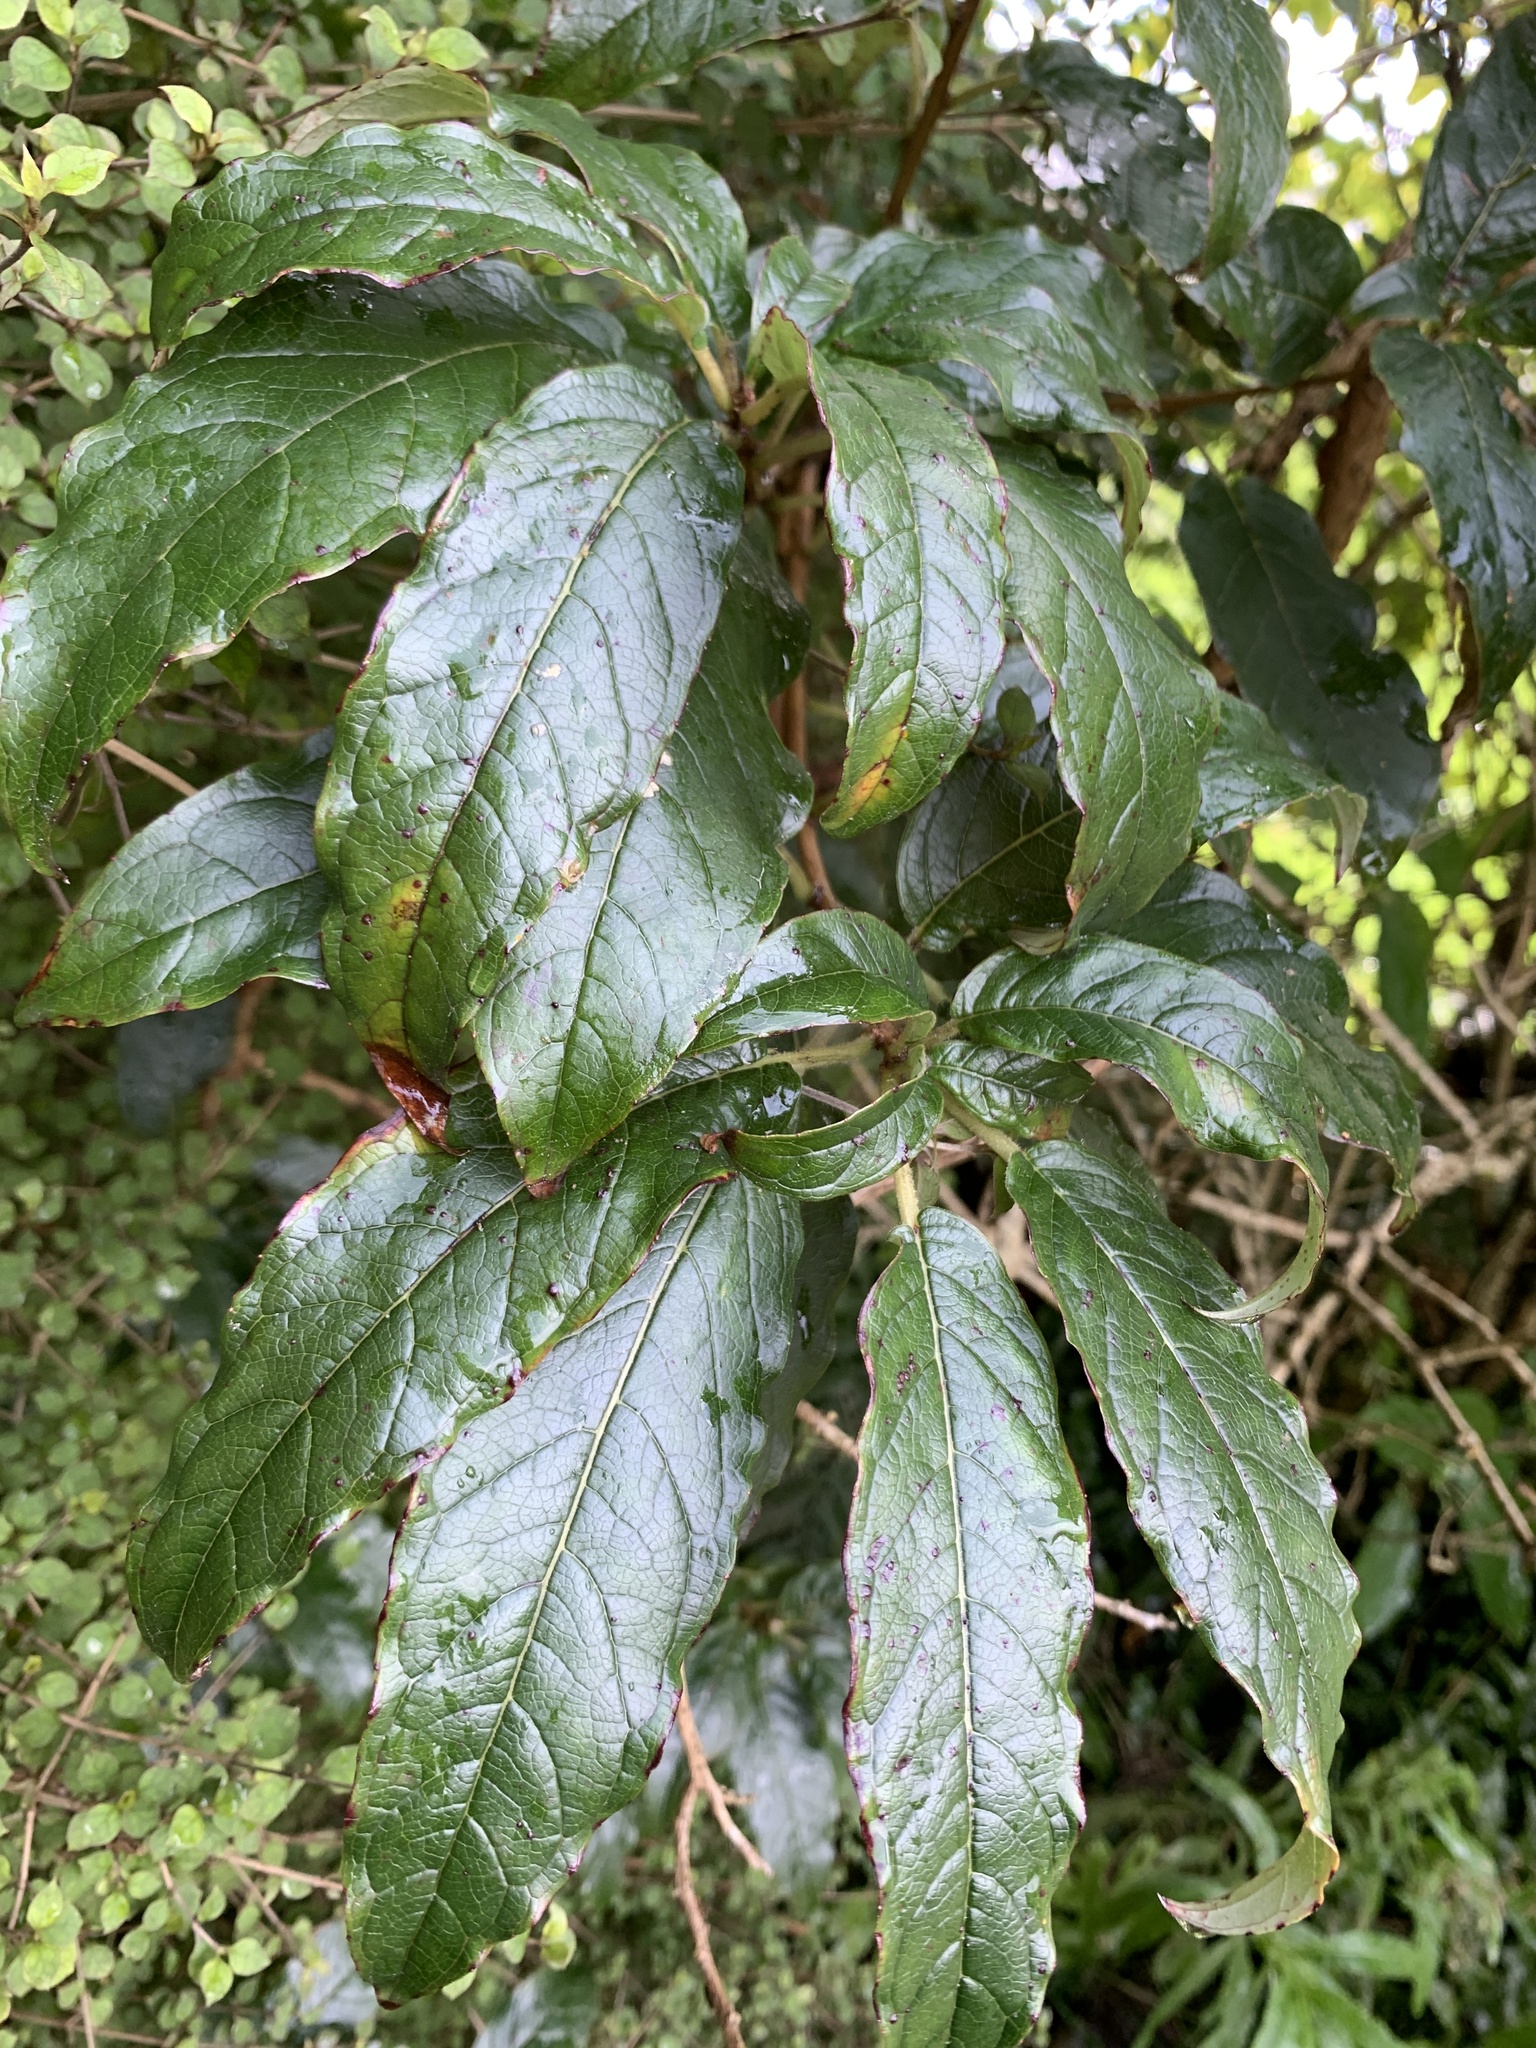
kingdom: Plantae
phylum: Tracheophyta
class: Magnoliopsida
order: Myrtales
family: Onagraceae
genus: Fuchsia
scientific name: Fuchsia excorticata
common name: Tree fuchsia
